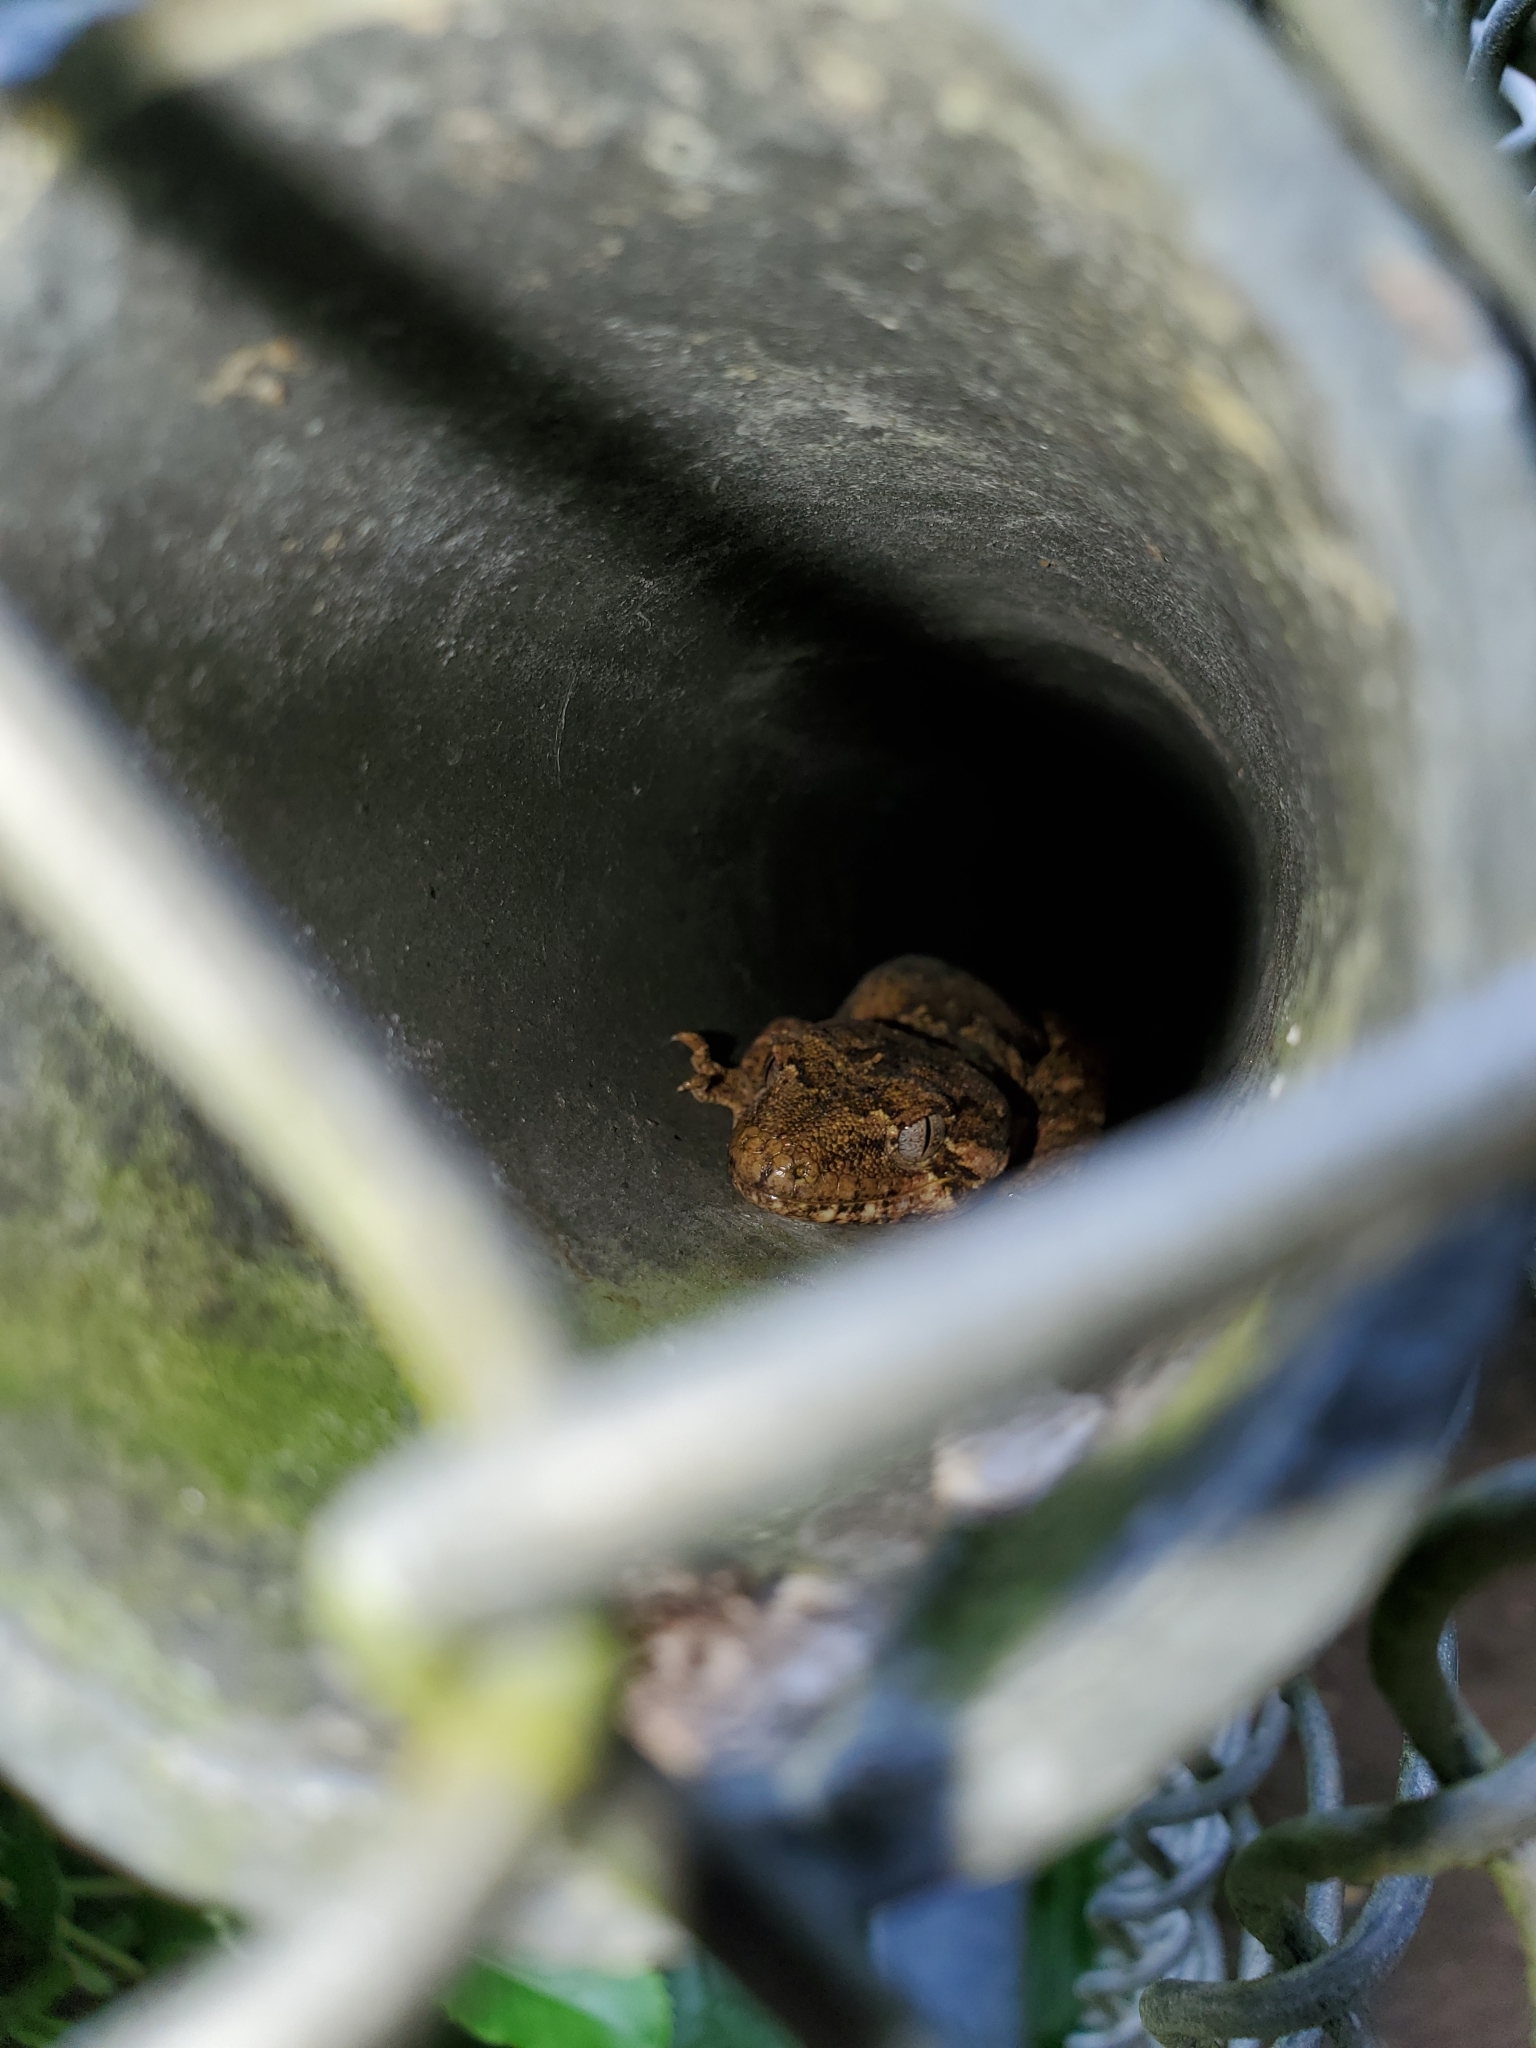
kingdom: Animalia
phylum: Chordata
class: Squamata
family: Diplodactylidae
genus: Mokopirirakau
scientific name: Mokopirirakau
